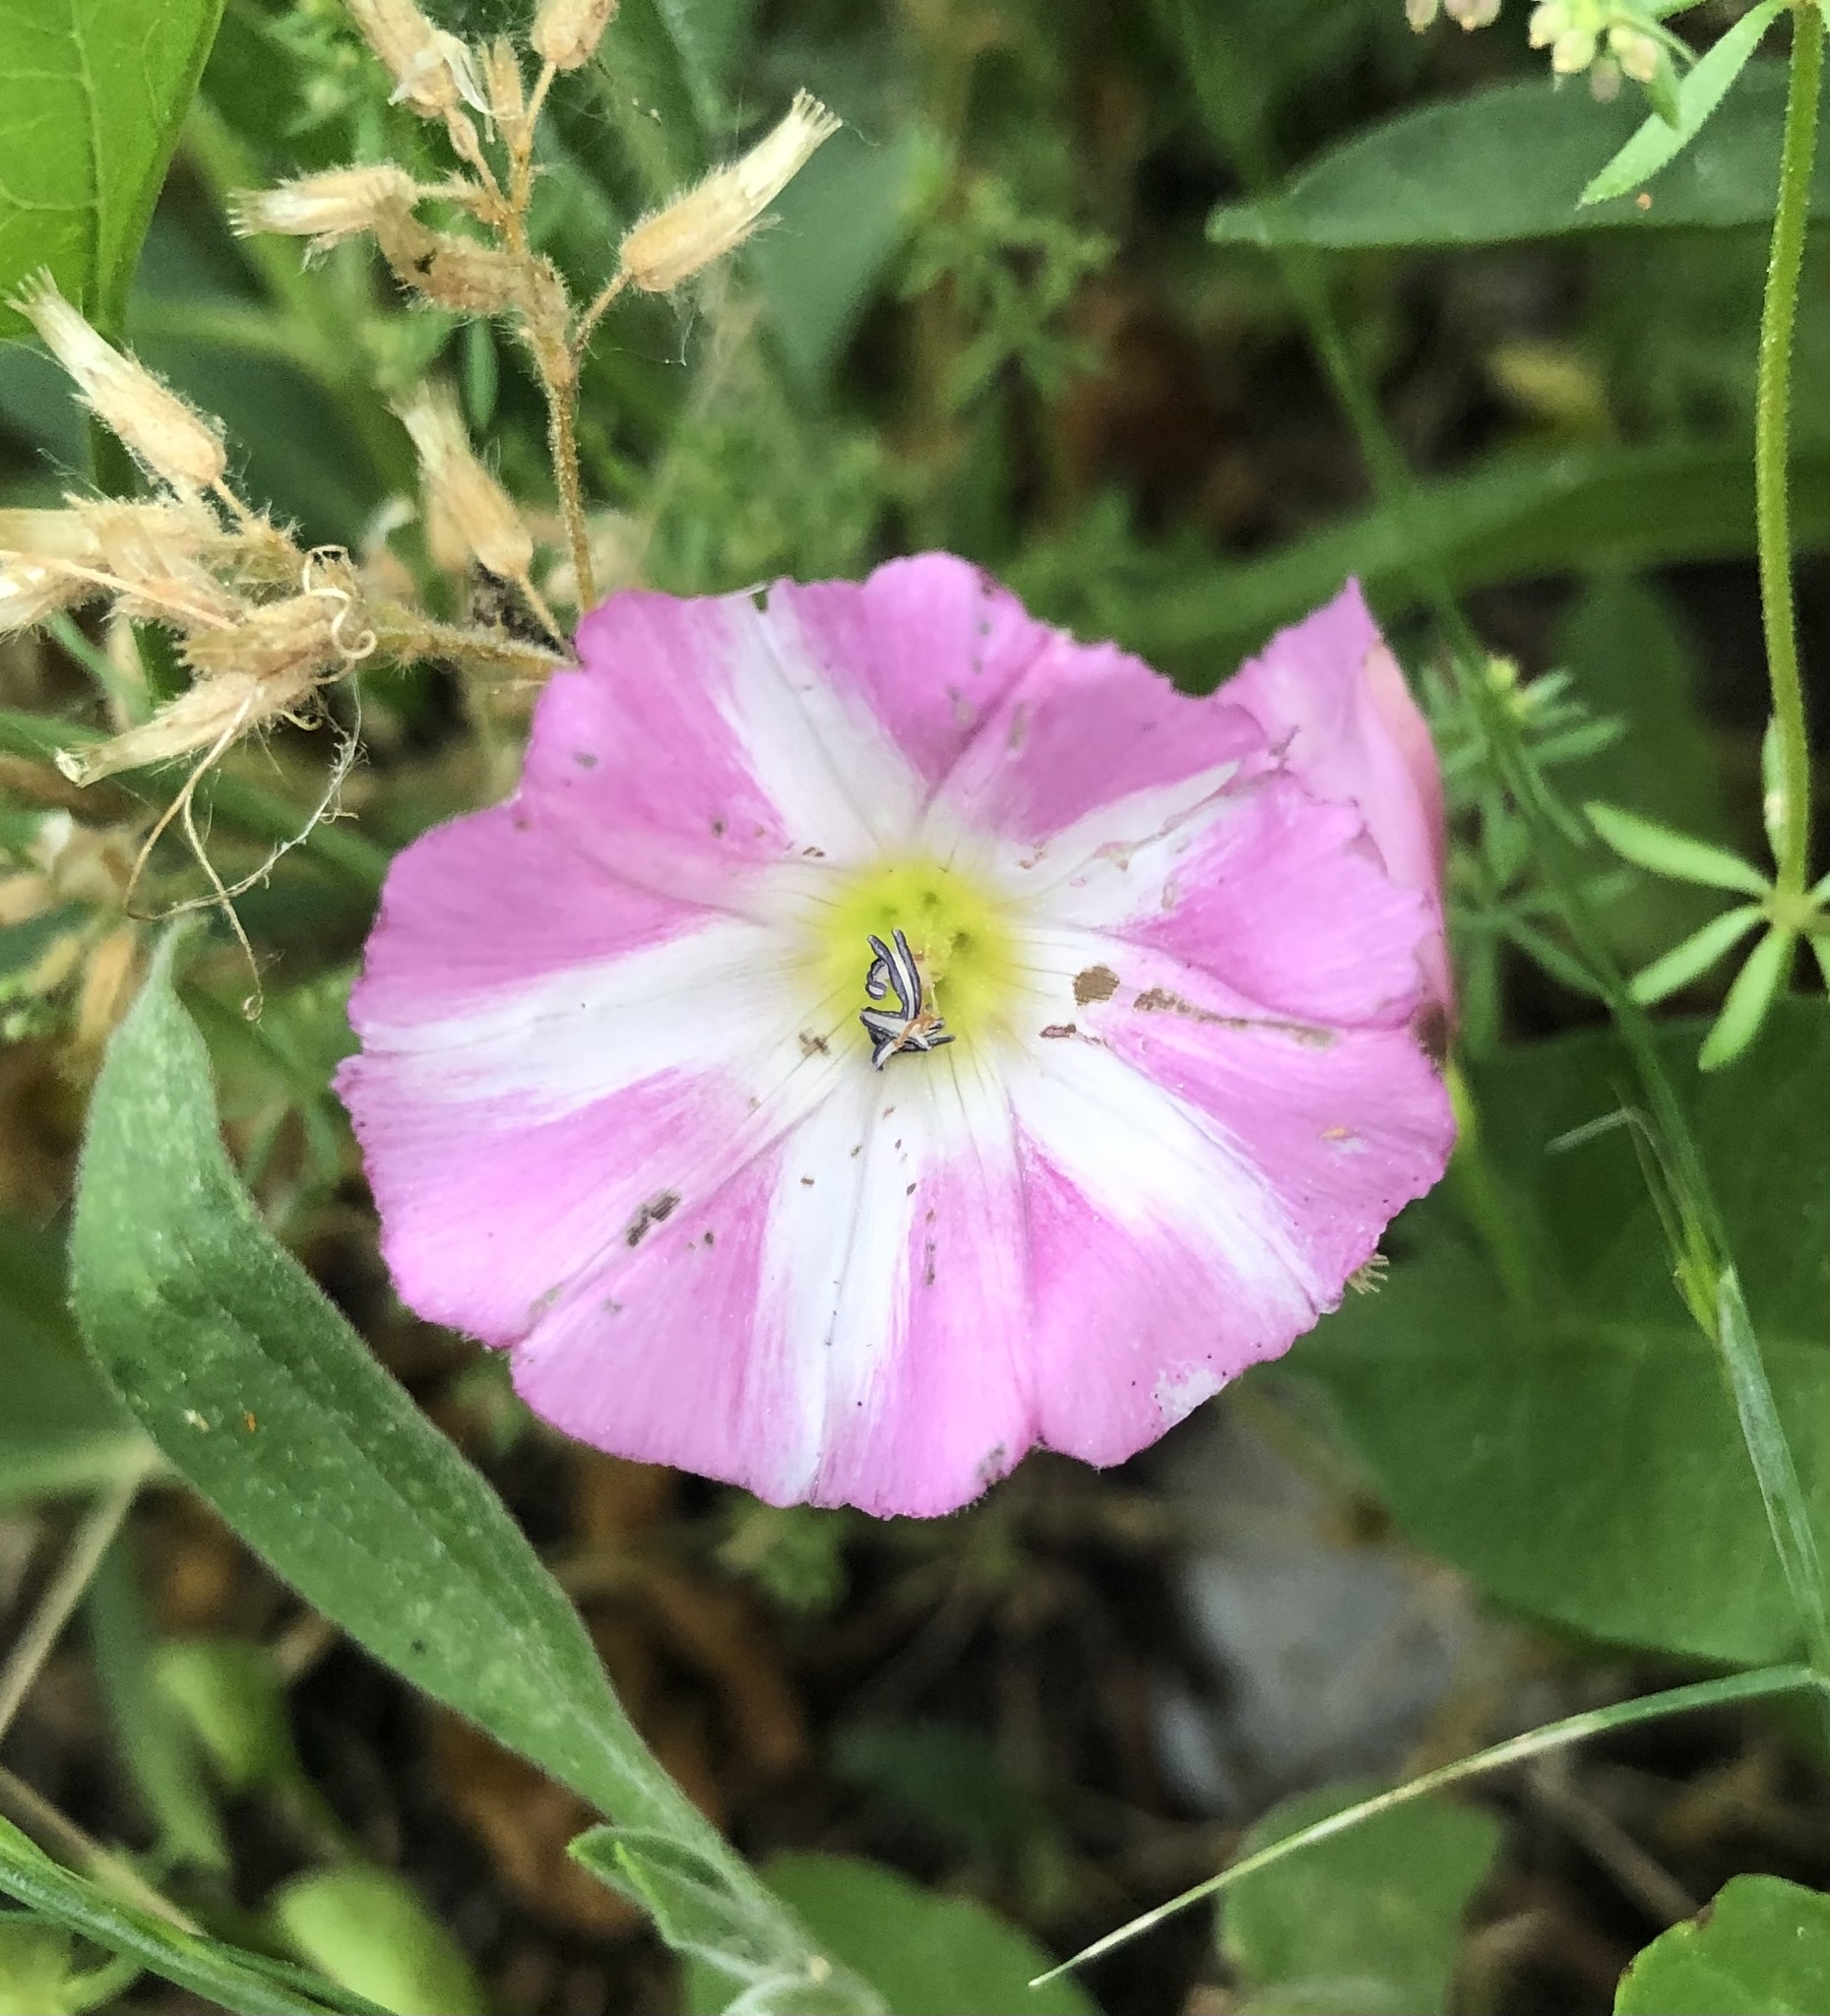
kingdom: Plantae
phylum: Tracheophyta
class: Magnoliopsida
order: Solanales
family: Convolvulaceae
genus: Convolvulus
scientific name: Convolvulus arvensis
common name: Field bindweed
